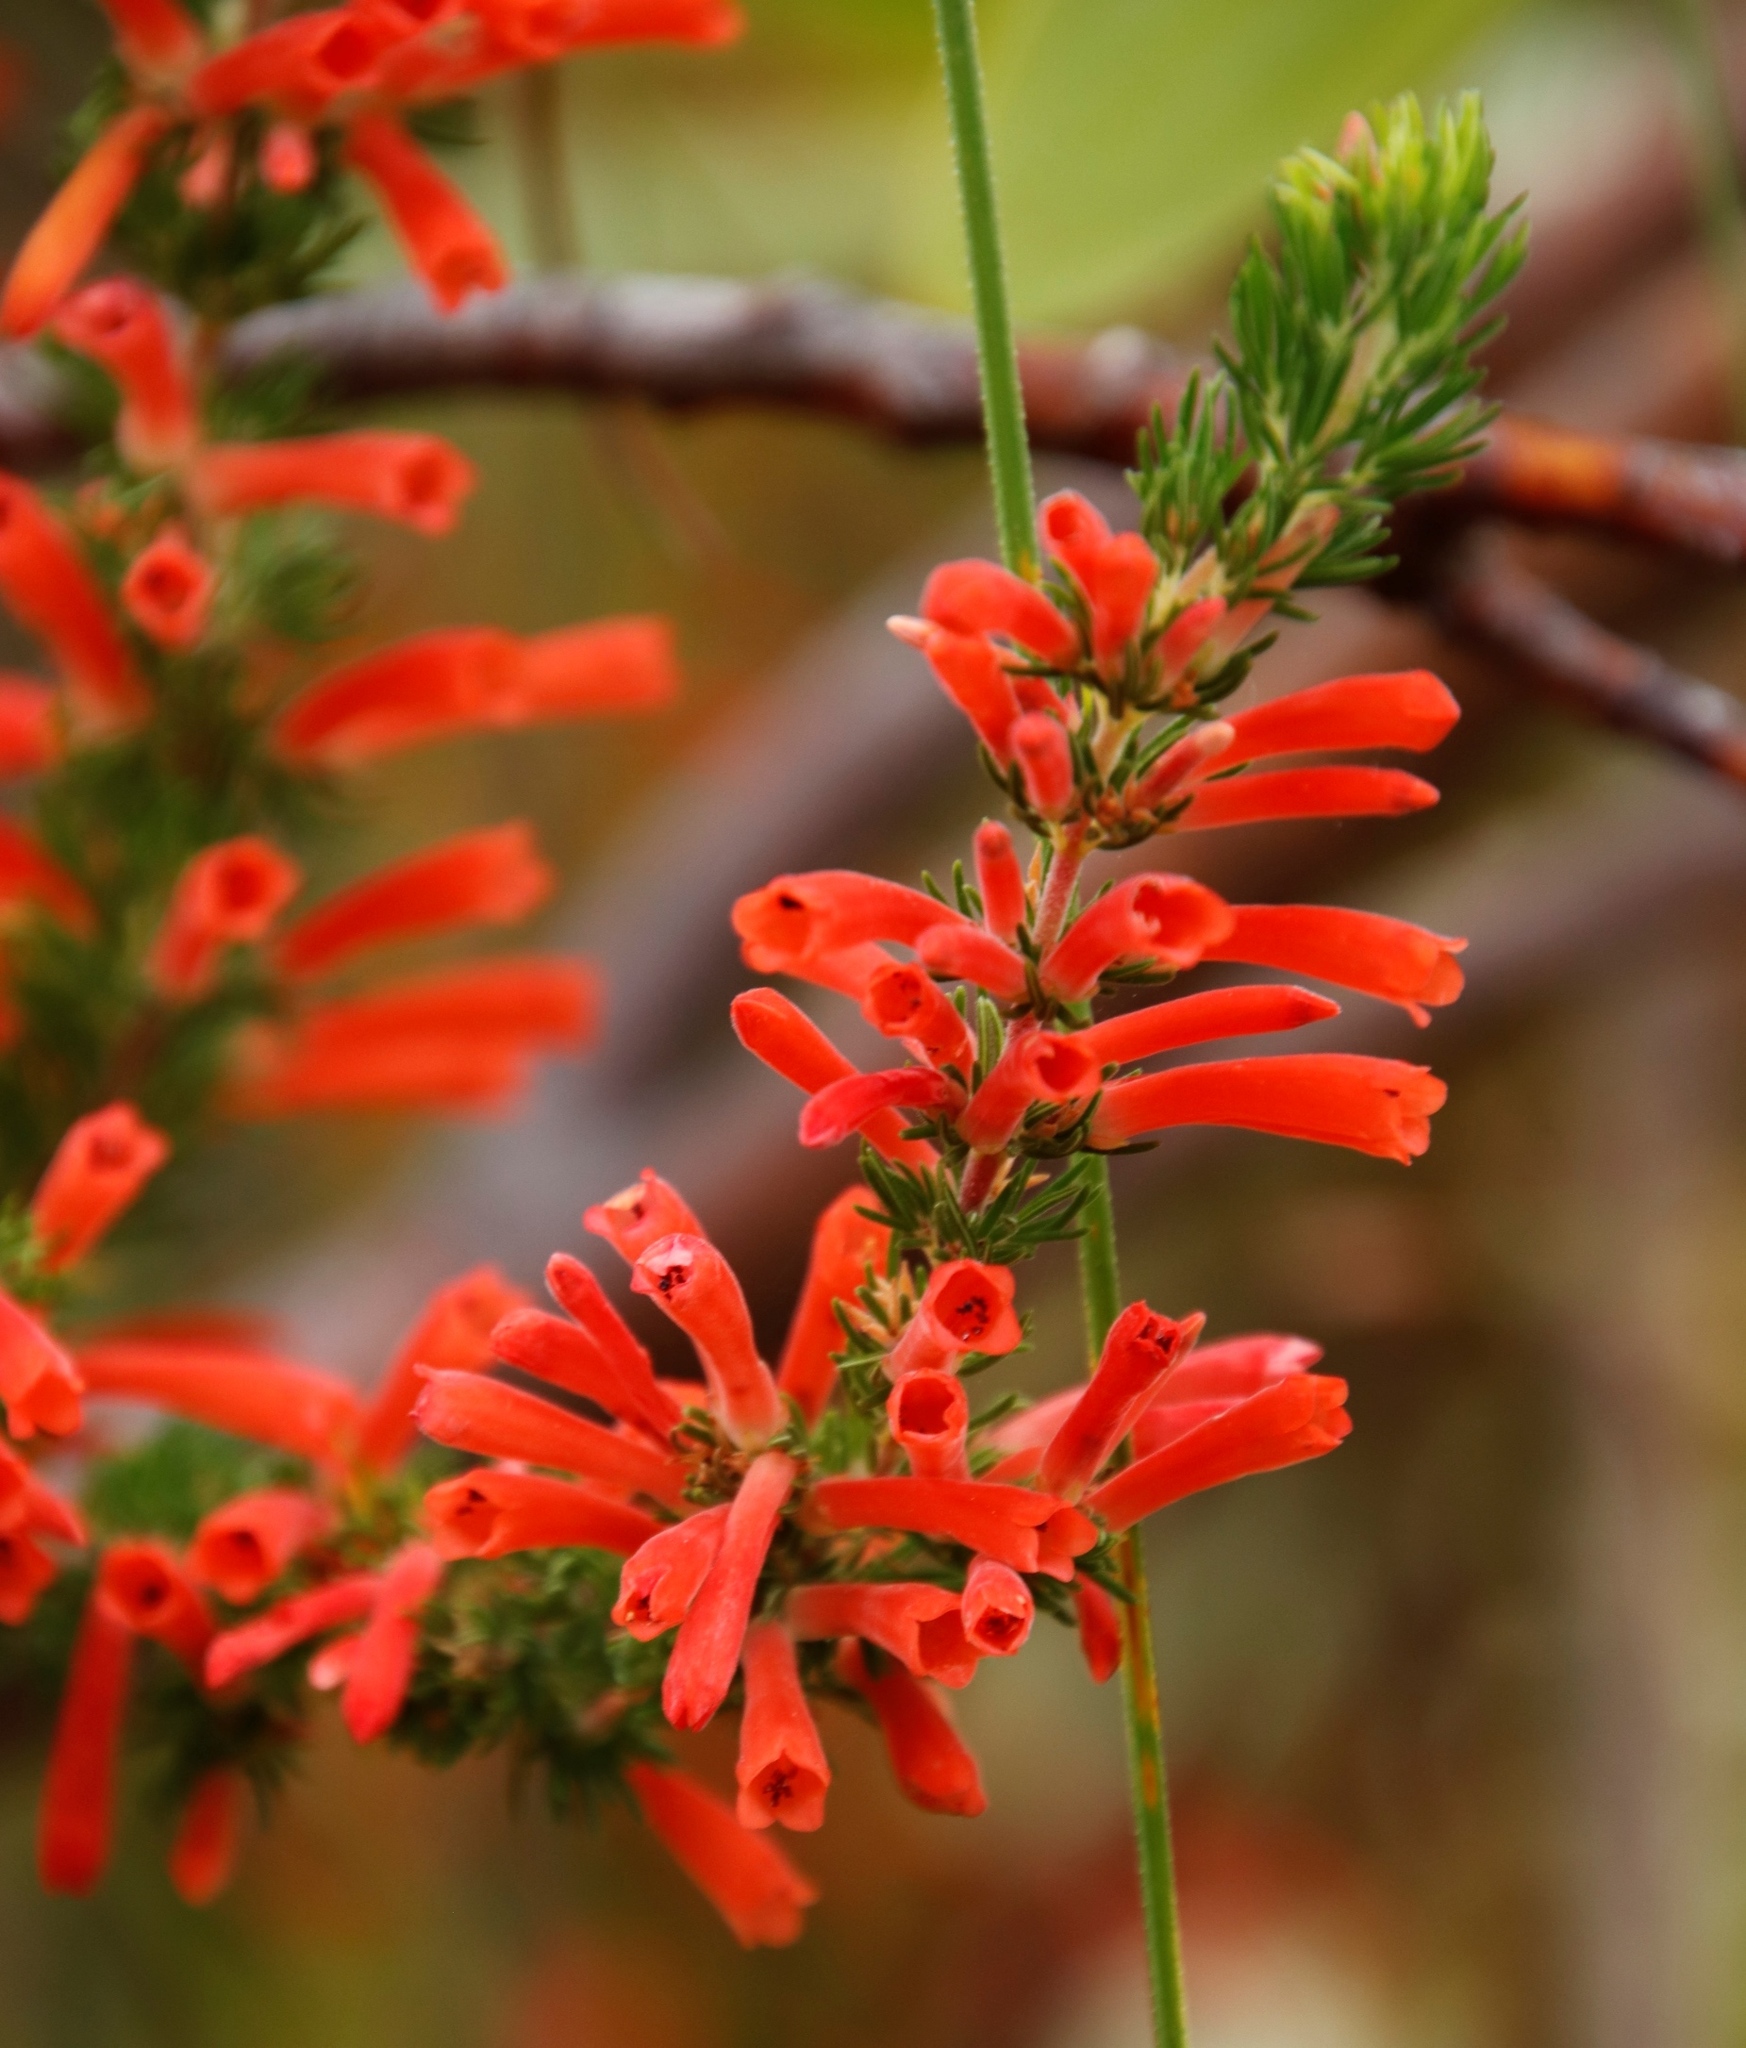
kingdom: Plantae
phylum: Tracheophyta
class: Magnoliopsida
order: Ericales
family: Ericaceae
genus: Erica
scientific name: Erica pillansii
